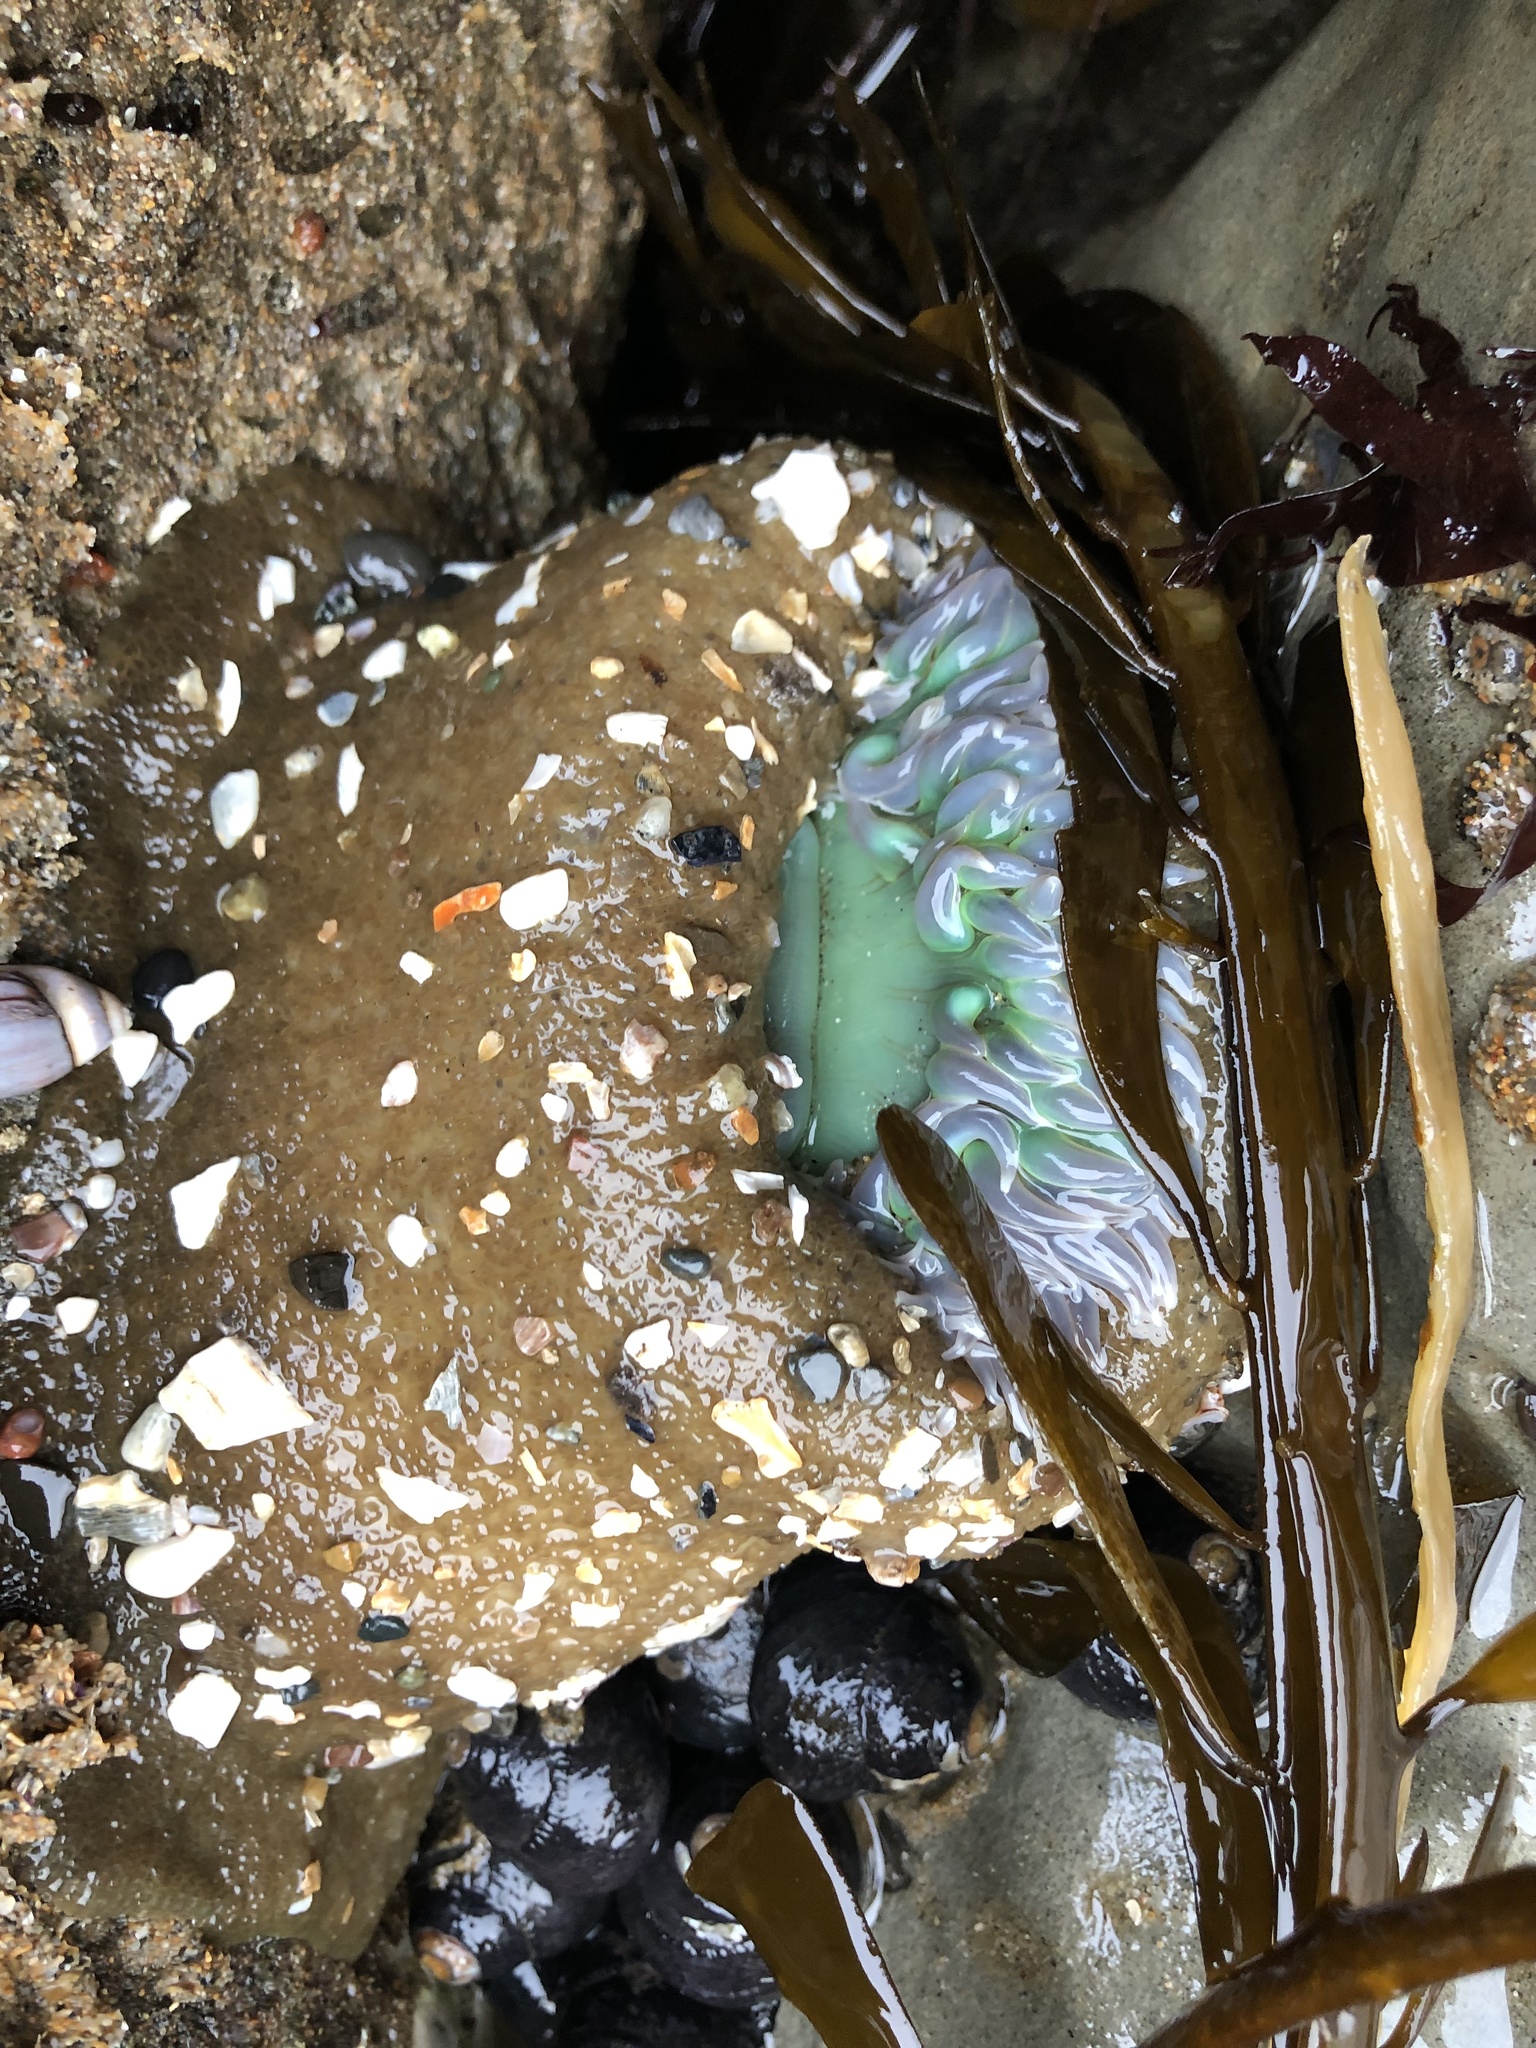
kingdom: Animalia
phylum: Cnidaria
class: Anthozoa
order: Actiniaria
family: Actiniidae
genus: Anthopleura
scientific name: Anthopleura xanthogrammica
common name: Giant green anemone
